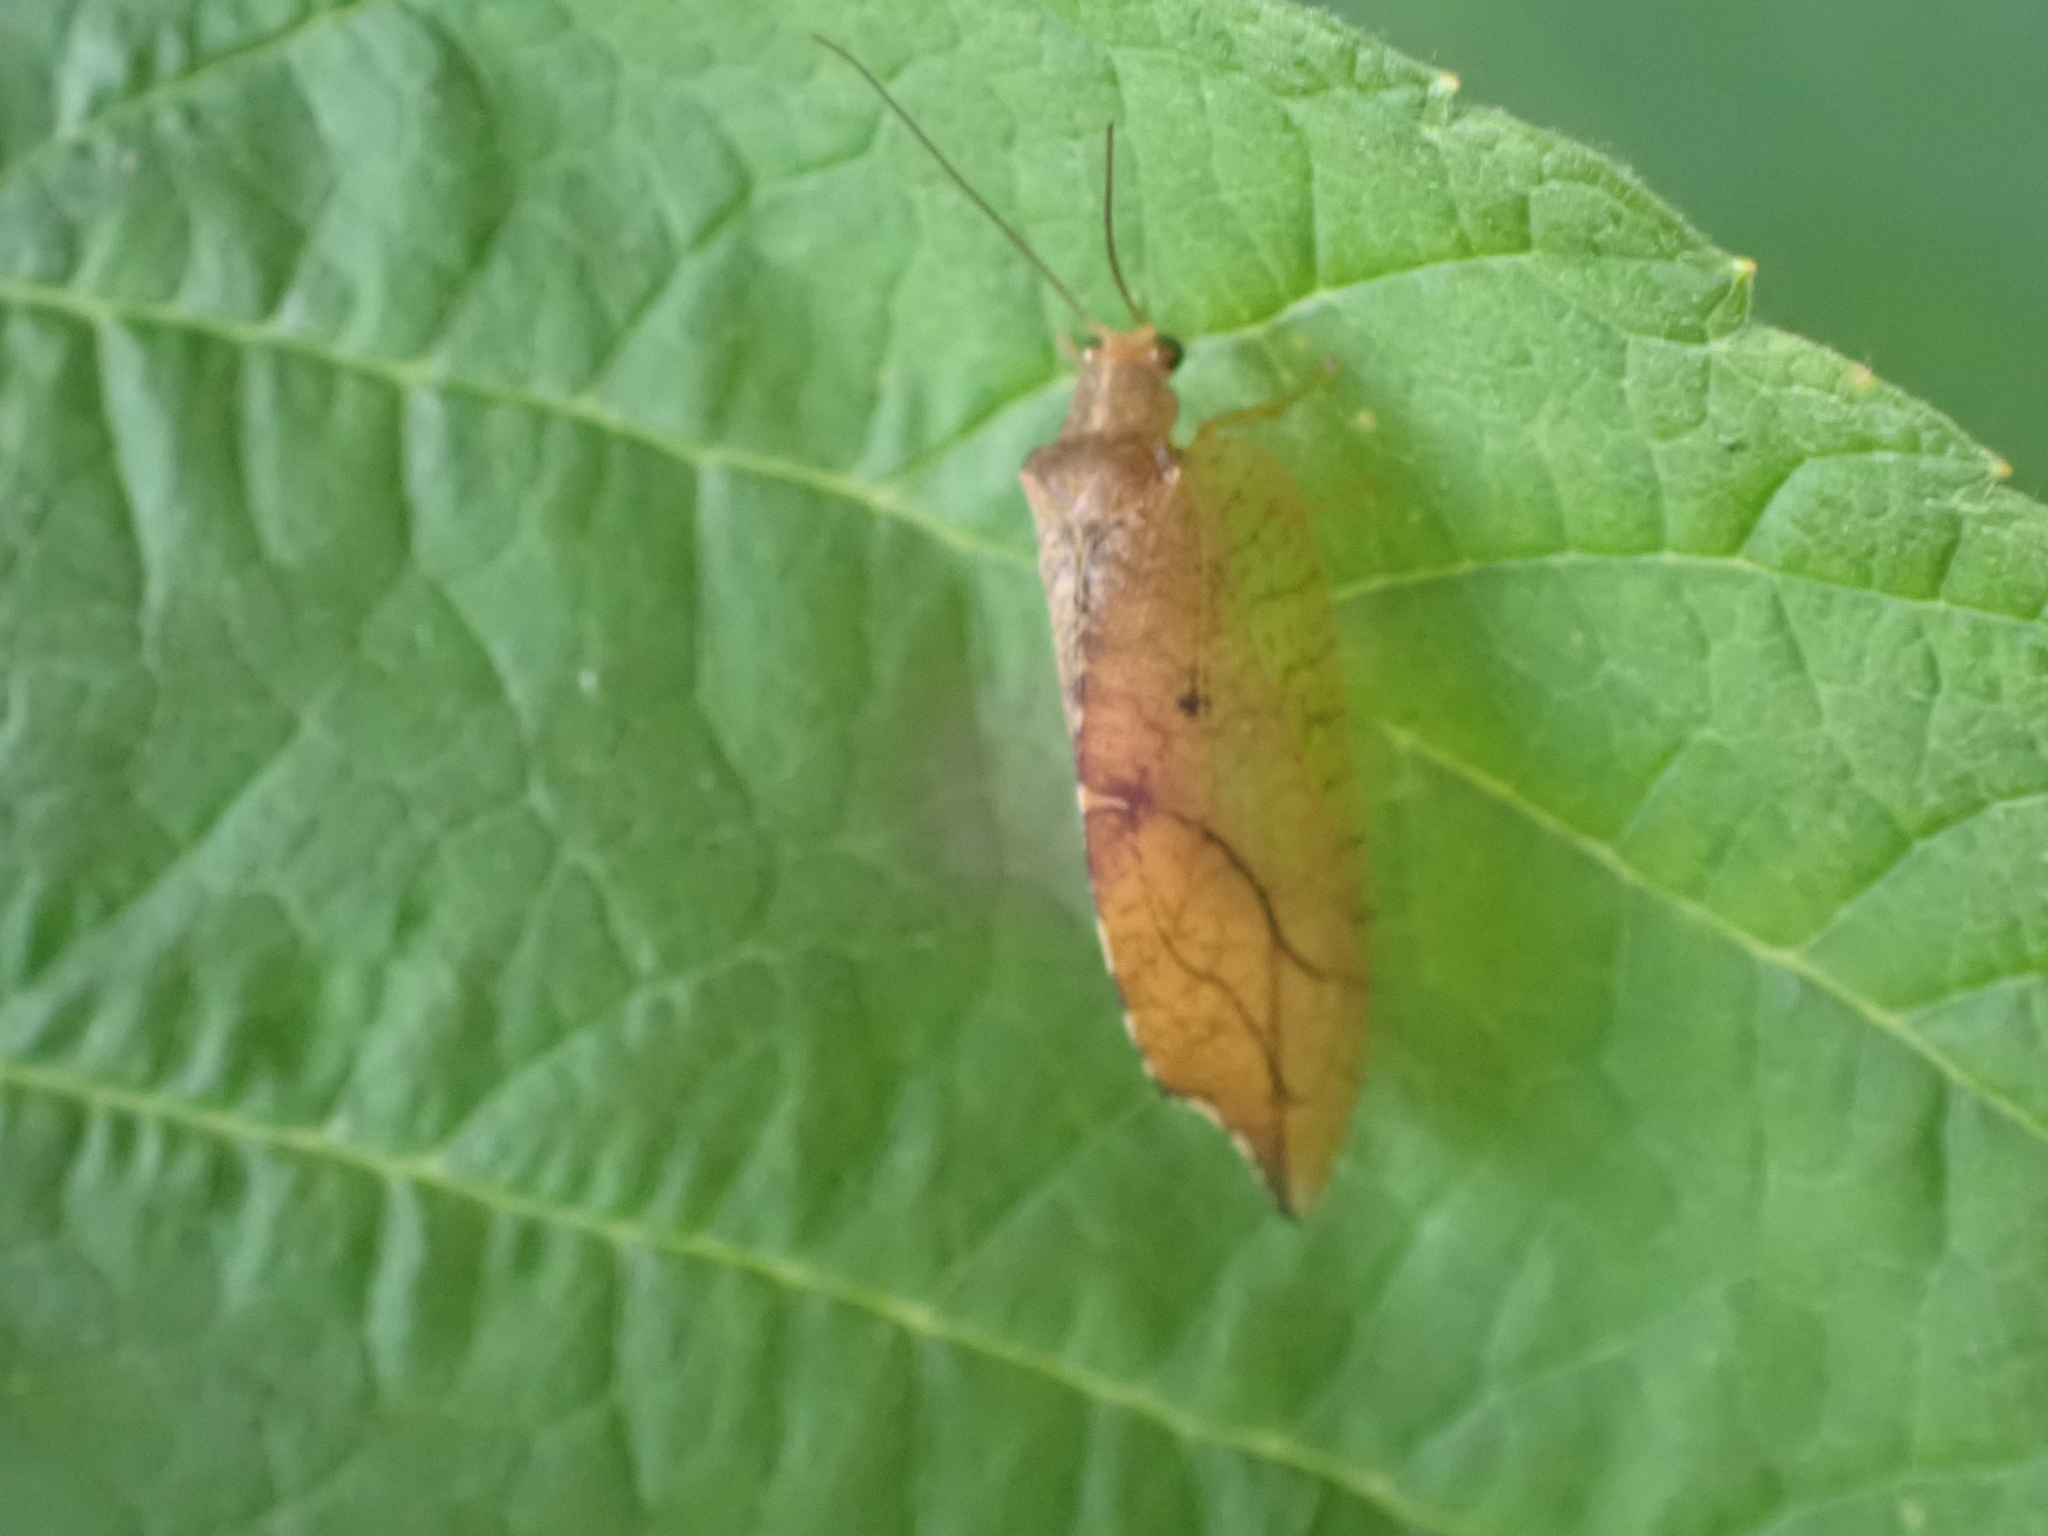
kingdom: Animalia
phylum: Arthropoda
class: Insecta
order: Neuroptera
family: Hemerobiidae
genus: Drepanepteryx
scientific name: Drepanepteryx phalaenoides
